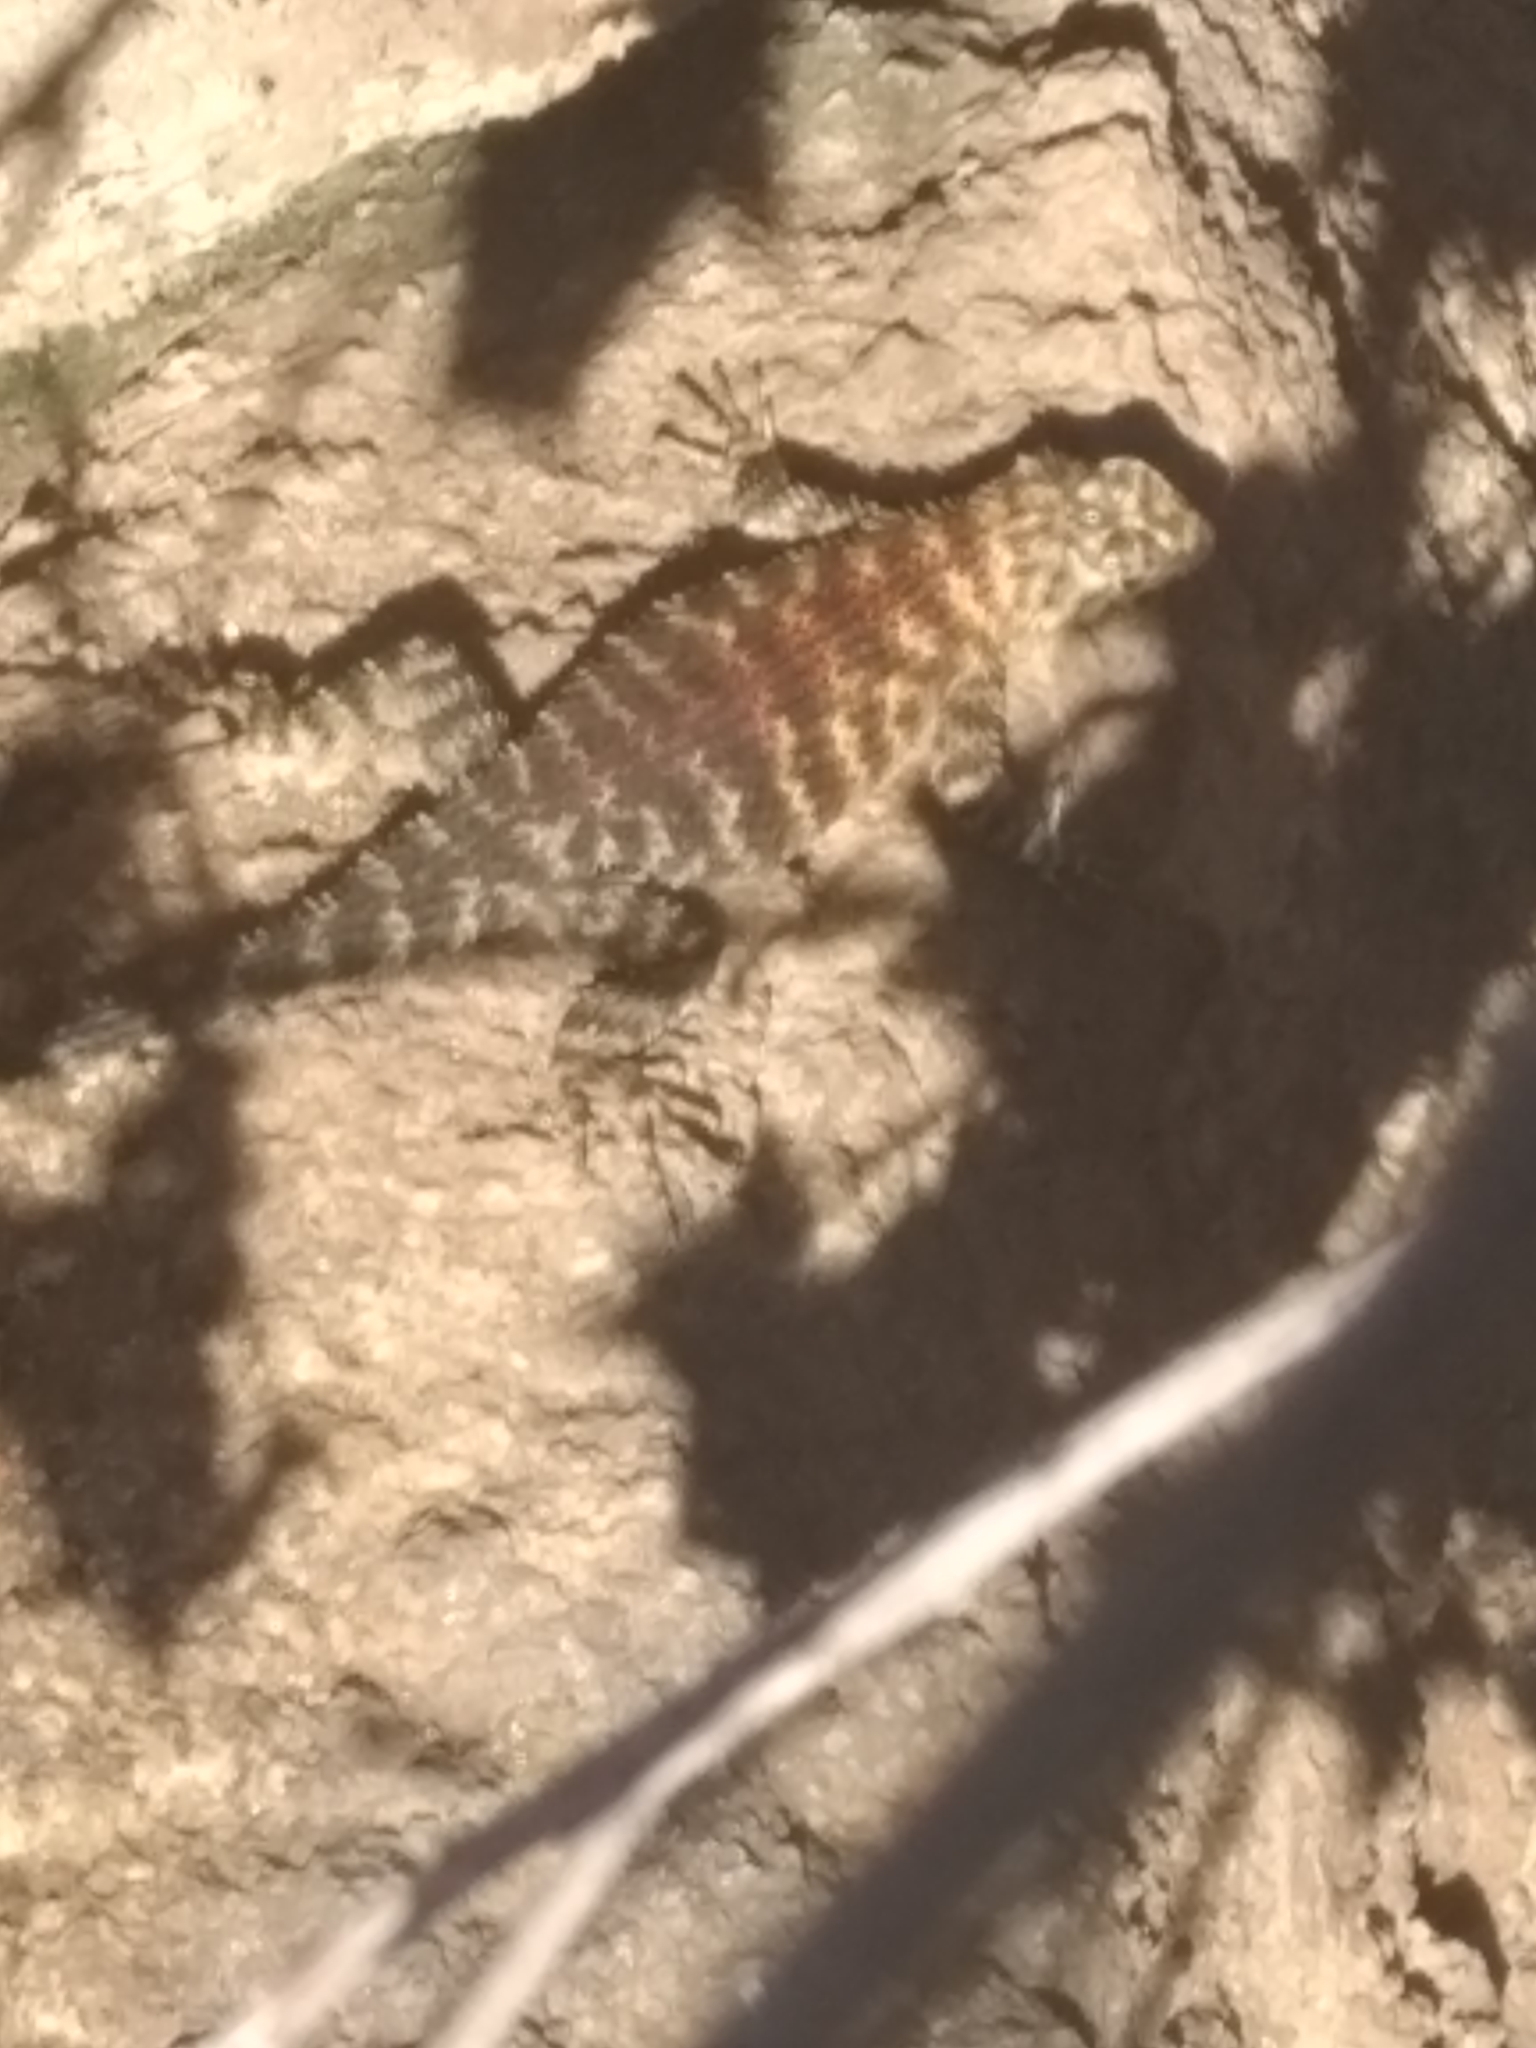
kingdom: Animalia
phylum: Chordata
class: Squamata
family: Phrynosomatidae
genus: Sceloporus
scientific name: Sceloporus orcutti
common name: Granite spiny lizard
